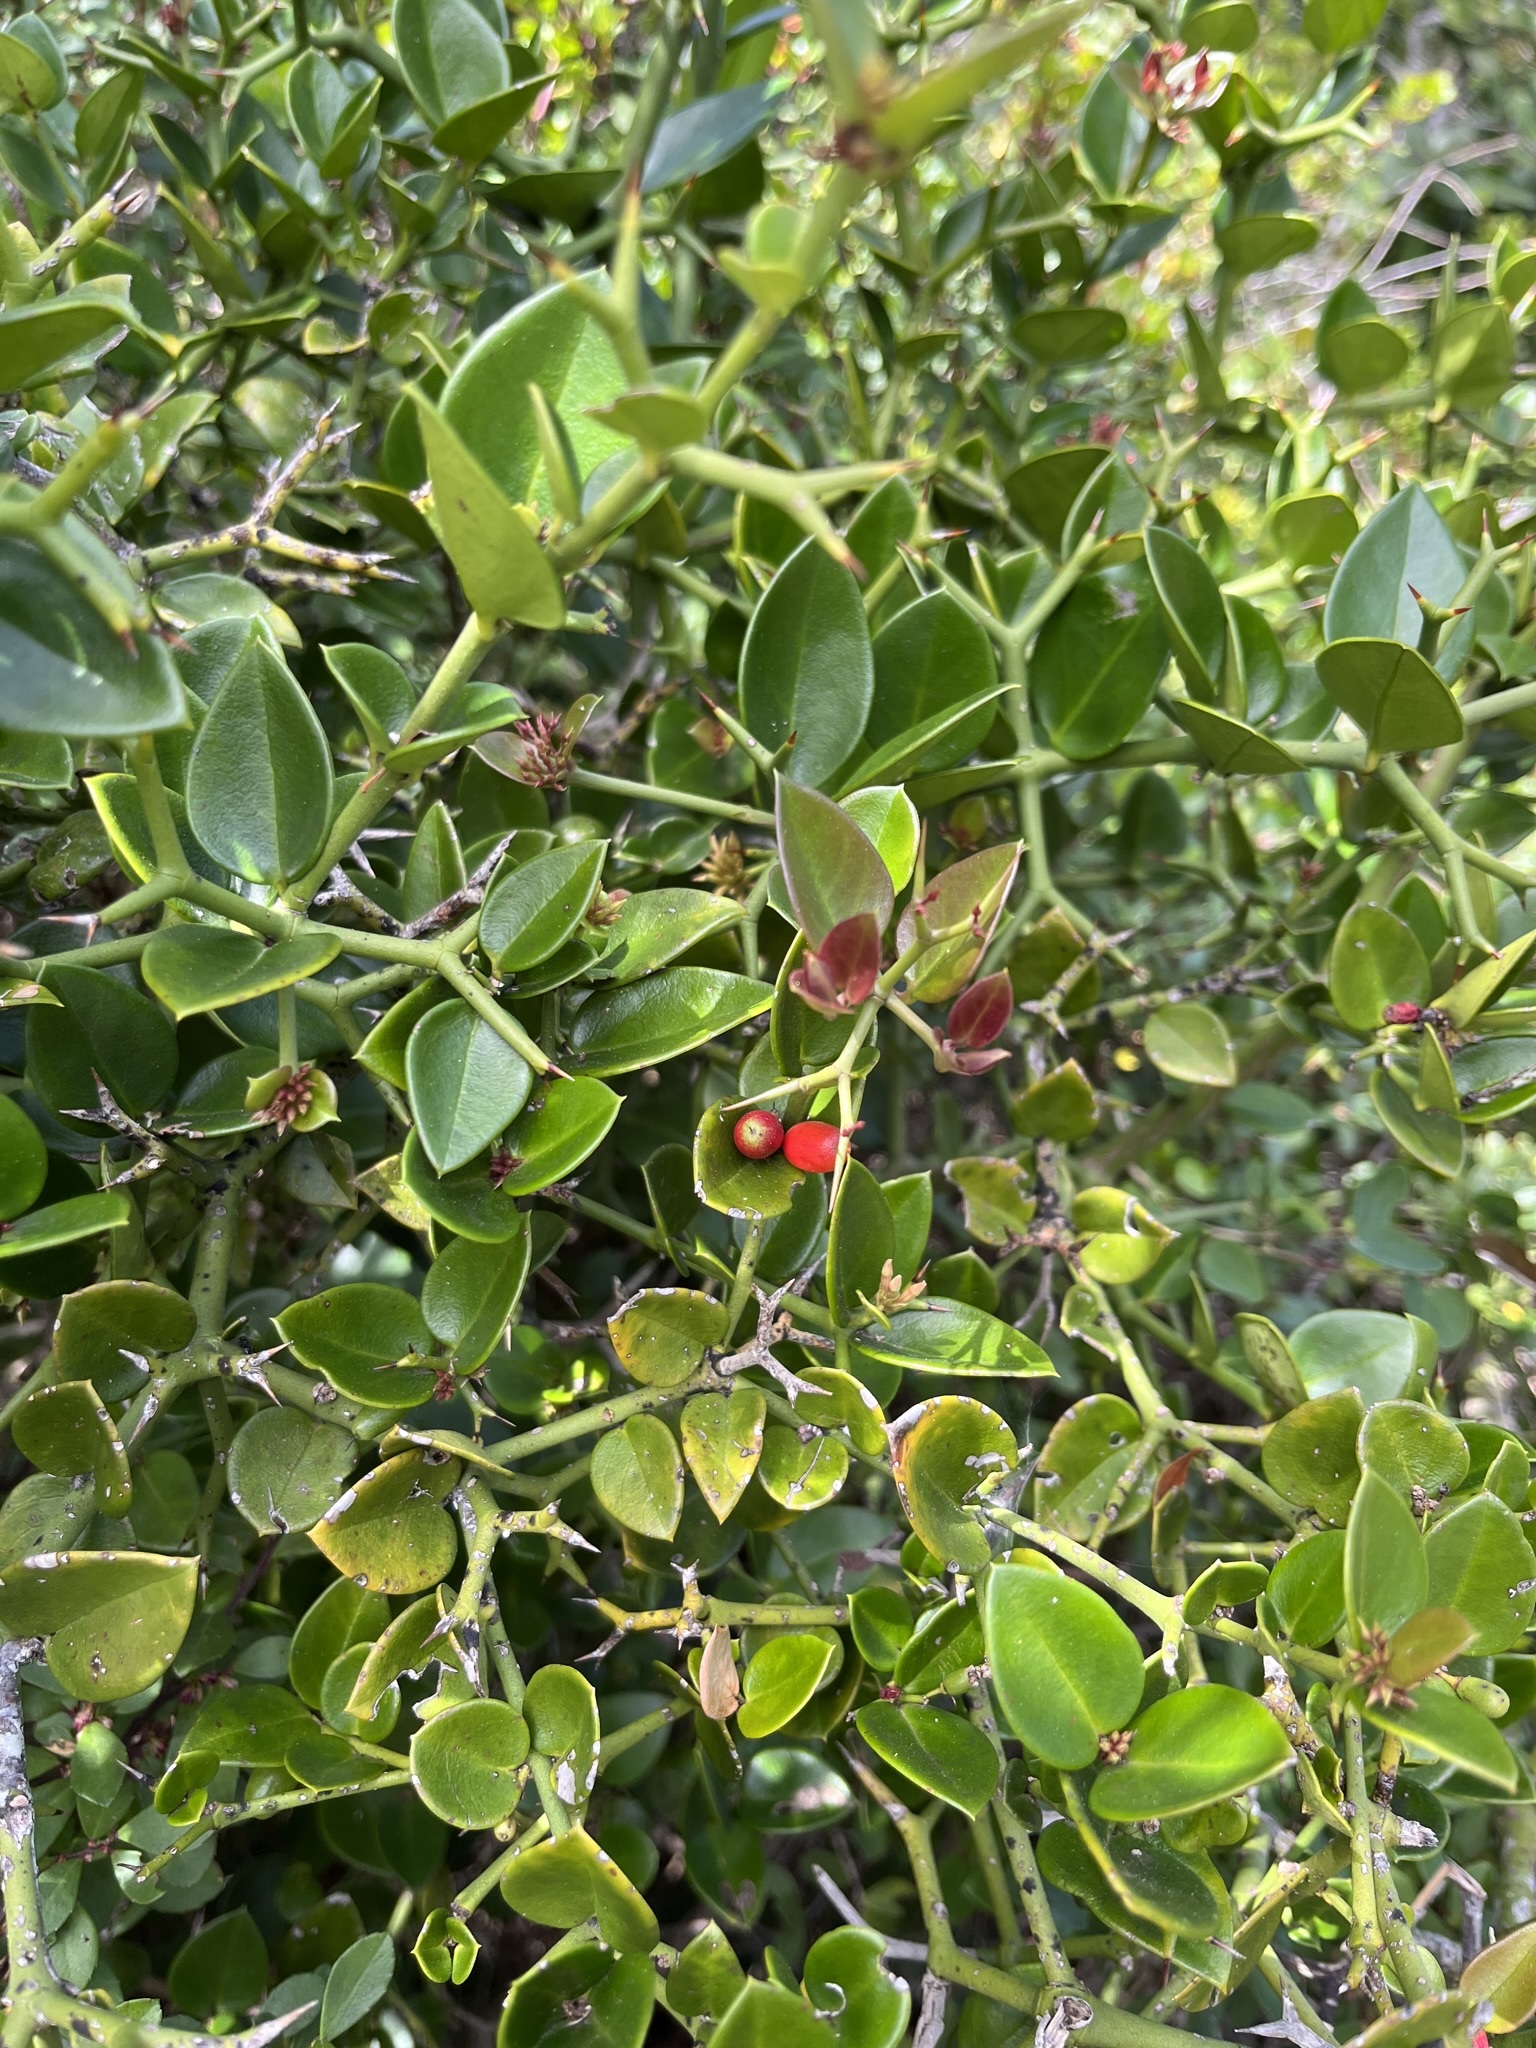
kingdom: Plantae
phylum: Tracheophyta
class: Magnoliopsida
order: Gentianales
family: Apocynaceae
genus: Carissa
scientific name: Carissa bispinosa
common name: Forest num-num
